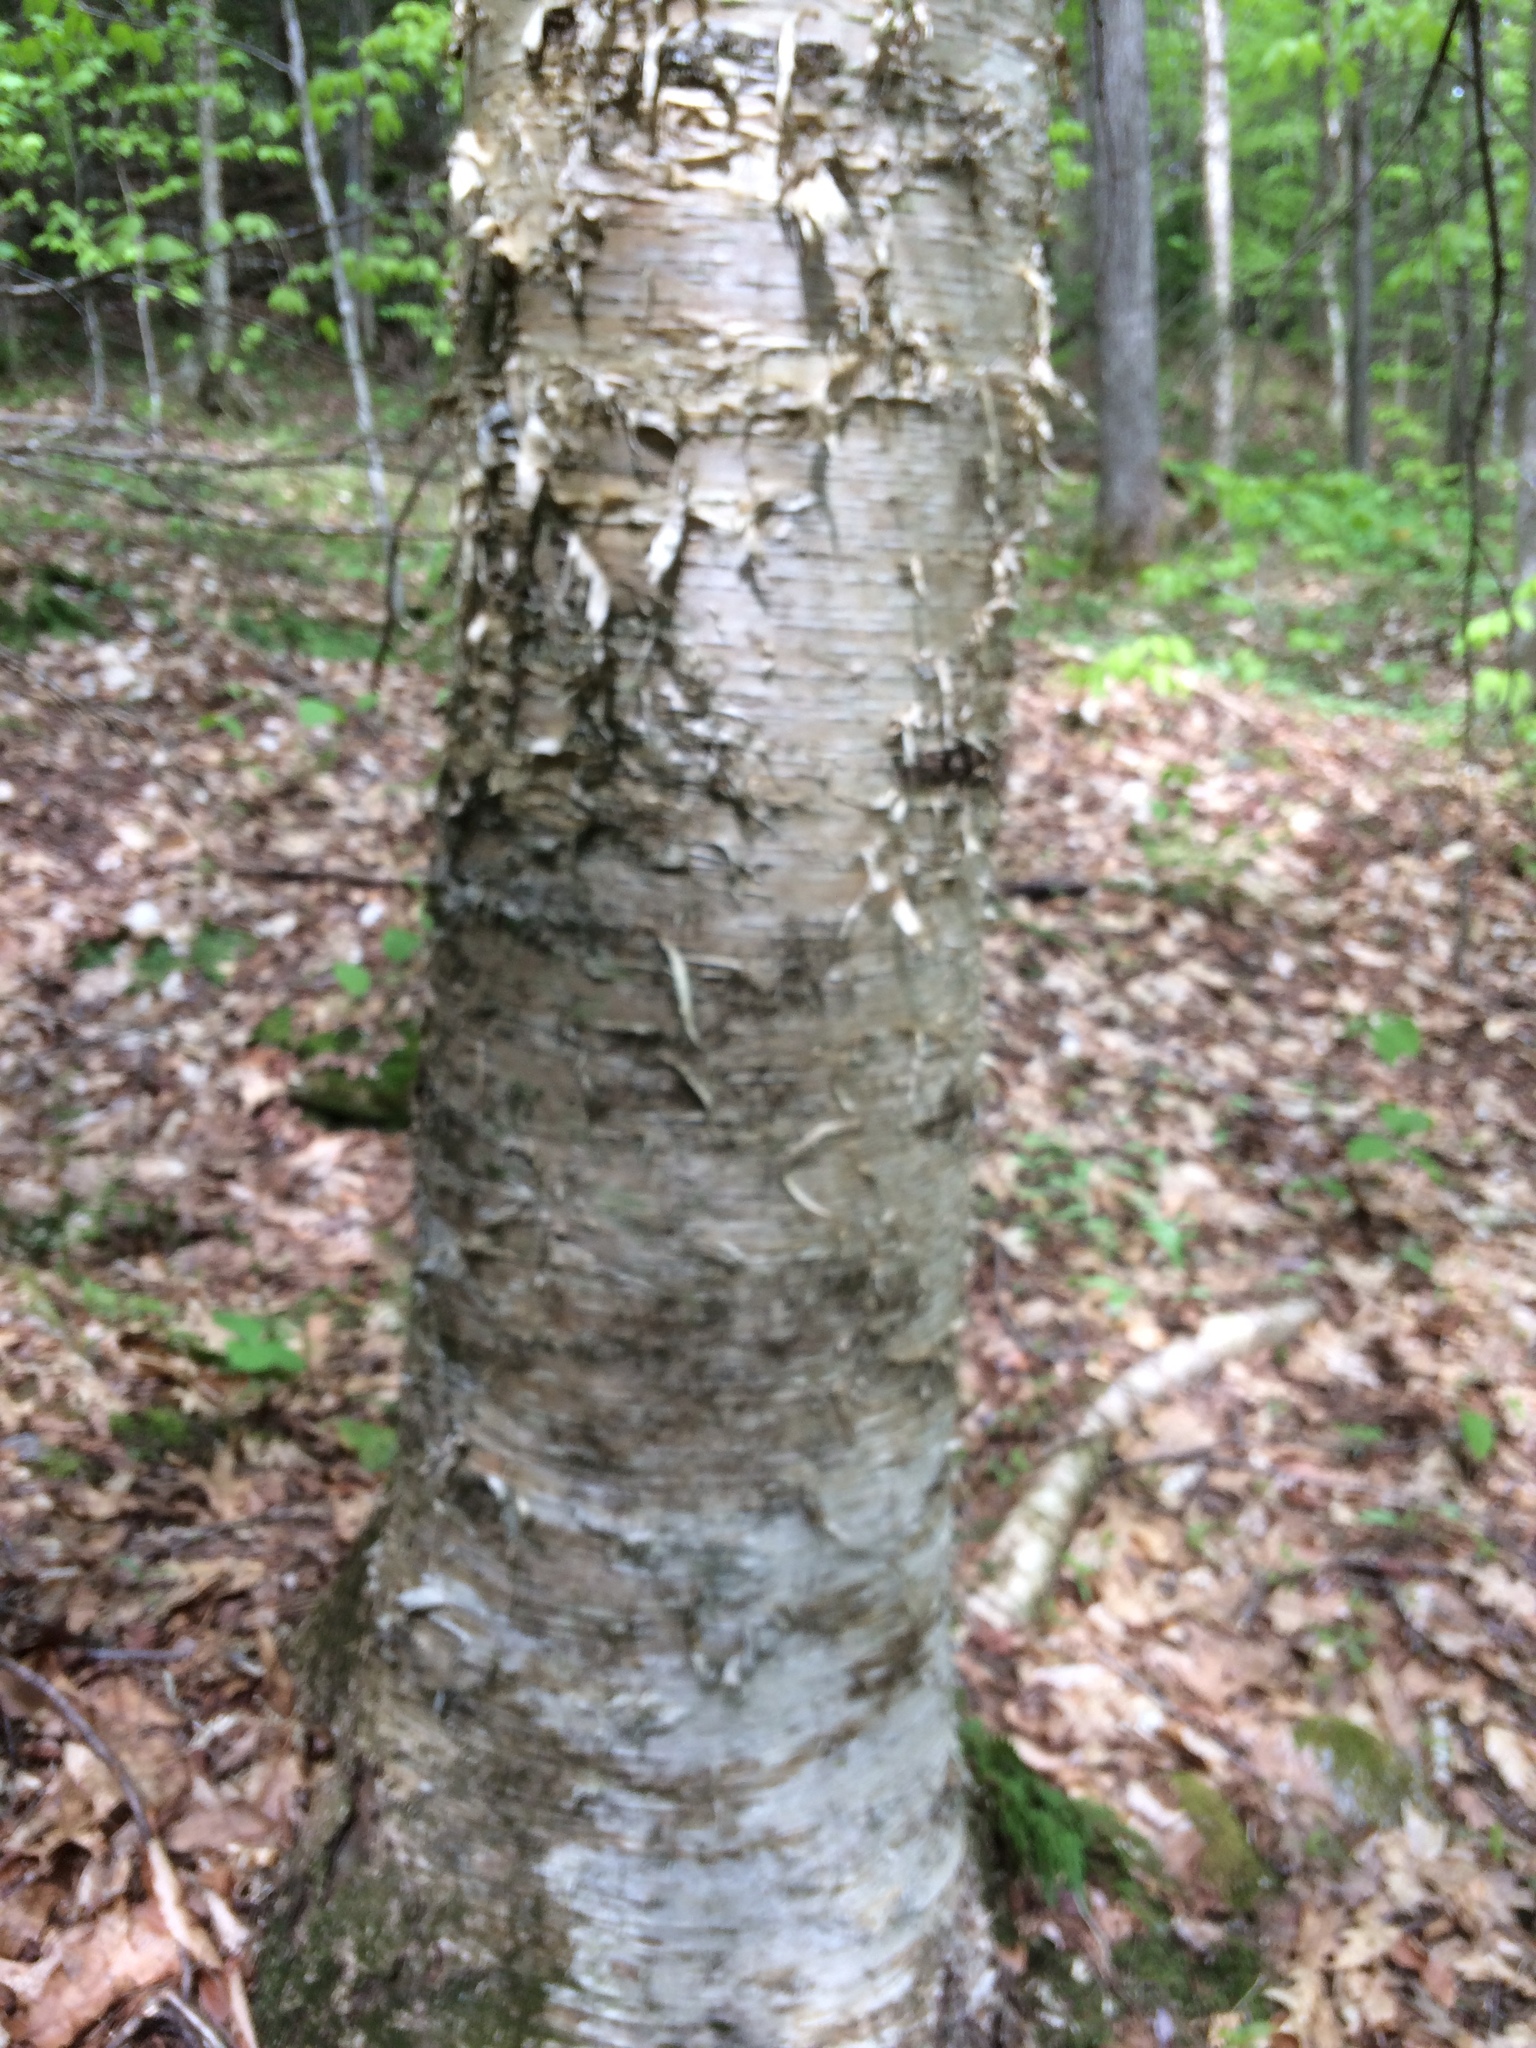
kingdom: Plantae
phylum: Tracheophyta
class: Magnoliopsida
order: Fagales
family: Betulaceae
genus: Betula
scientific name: Betula alleghaniensis
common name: Yellow birch
